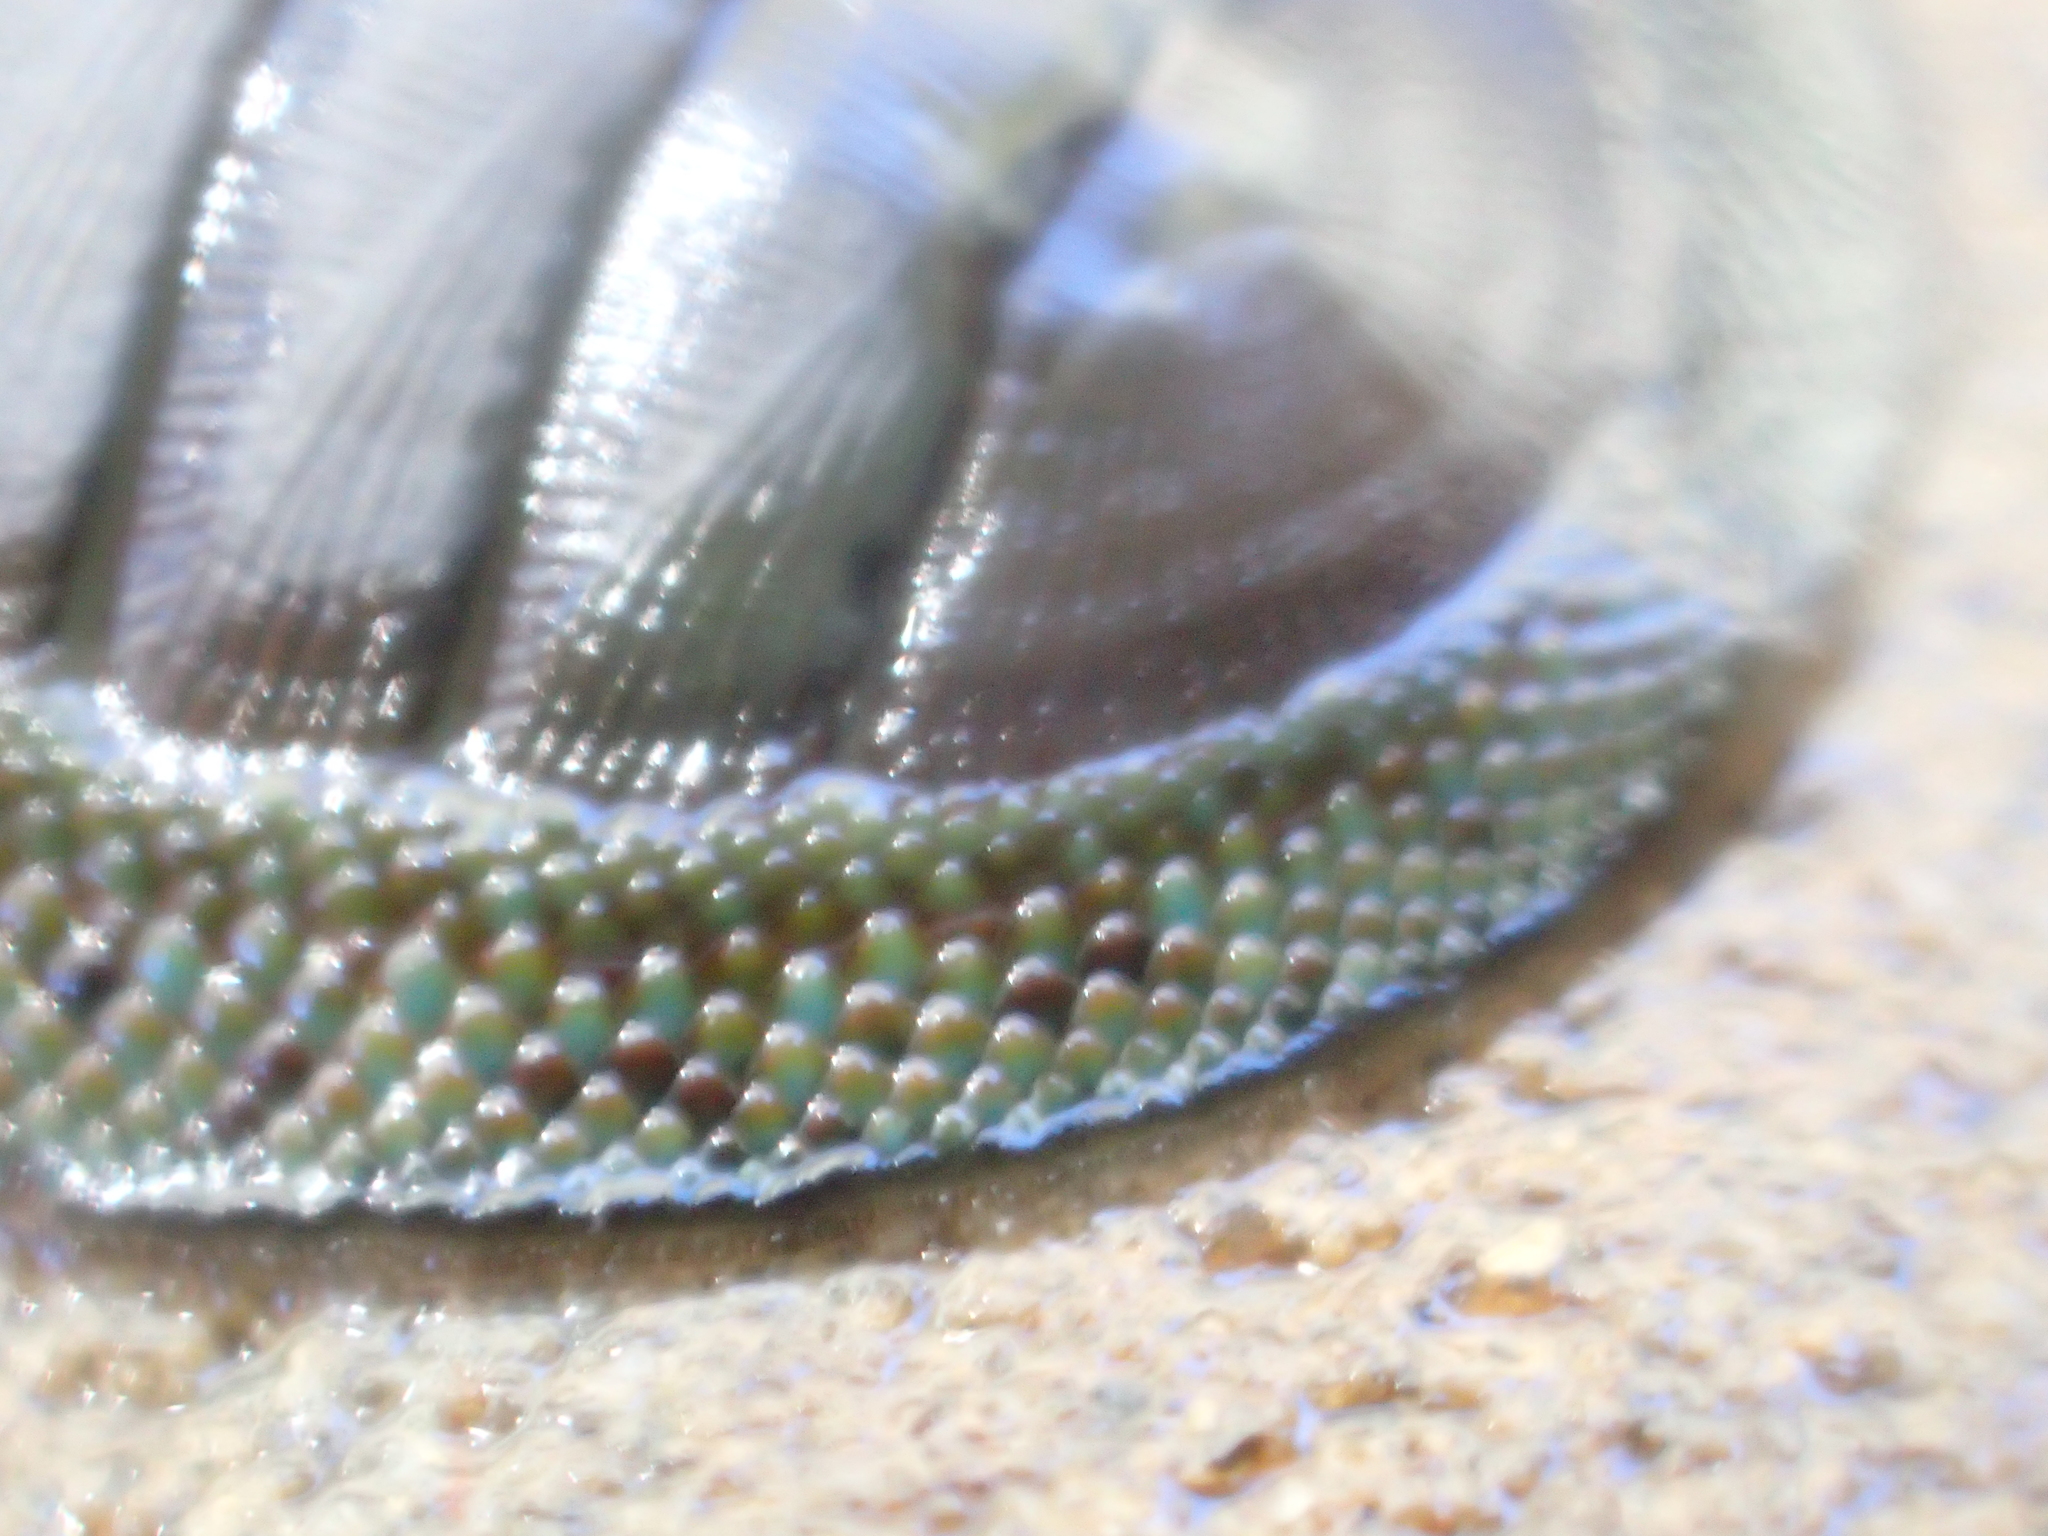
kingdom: Animalia
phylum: Mollusca
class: Polyplacophora
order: Chitonida
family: Chitonidae
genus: Chiton
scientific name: Chiton glaucus
